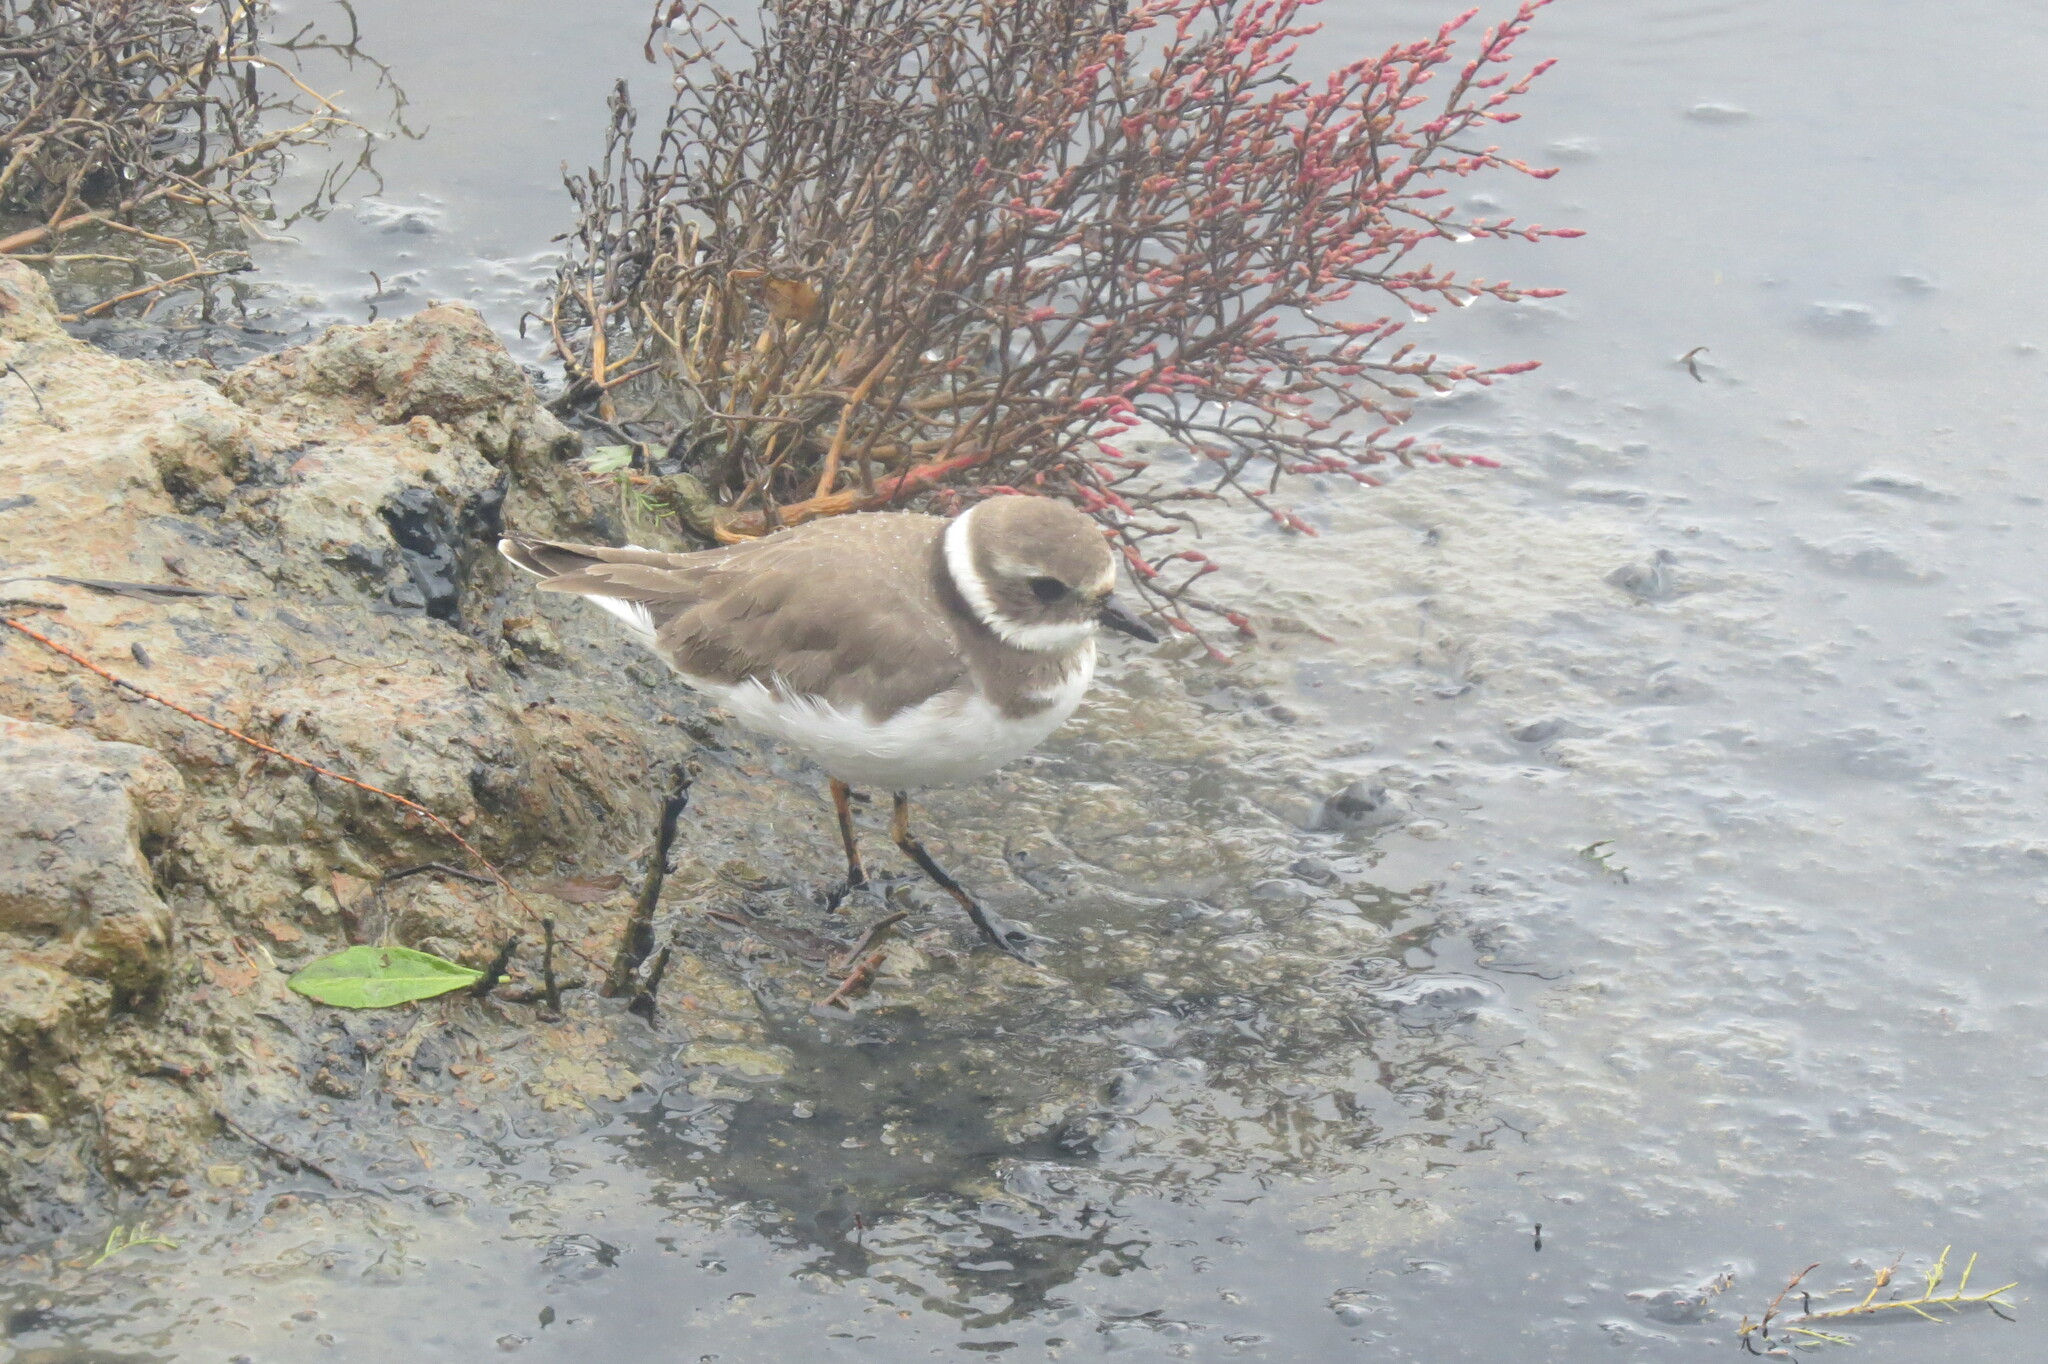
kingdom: Animalia
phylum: Chordata
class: Aves
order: Charadriiformes
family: Charadriidae
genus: Charadrius
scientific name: Charadrius hiaticula
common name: Common ringed plover
